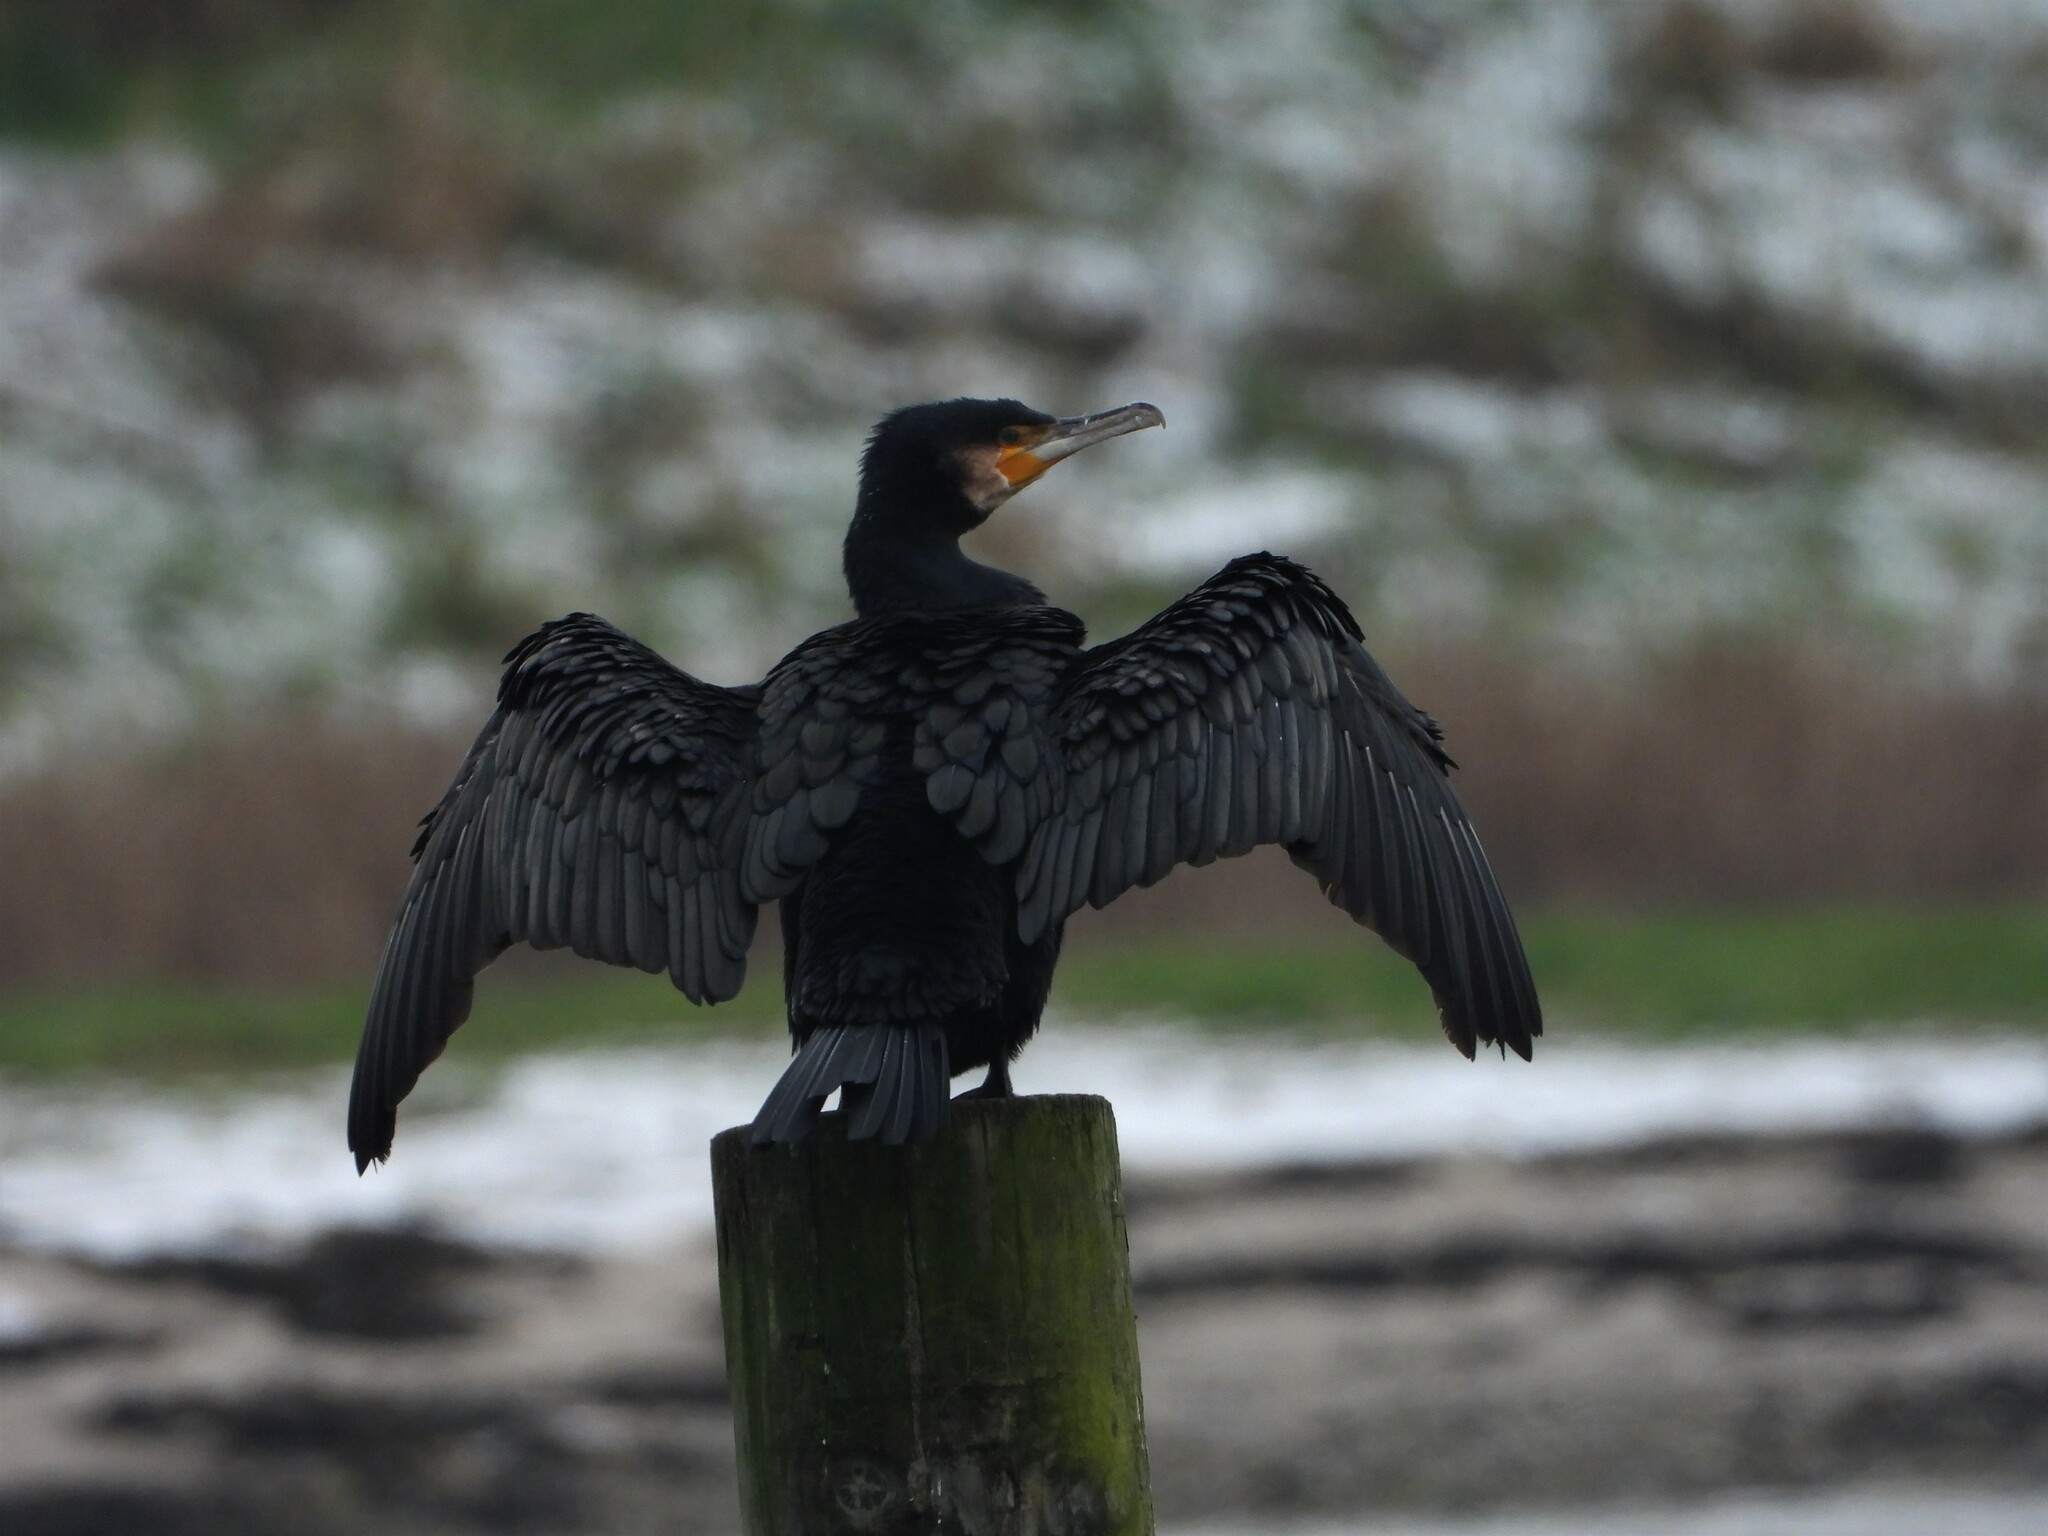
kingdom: Animalia
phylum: Chordata
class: Aves
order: Suliformes
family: Phalacrocoracidae
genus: Phalacrocorax
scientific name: Phalacrocorax carbo
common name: Great cormorant
